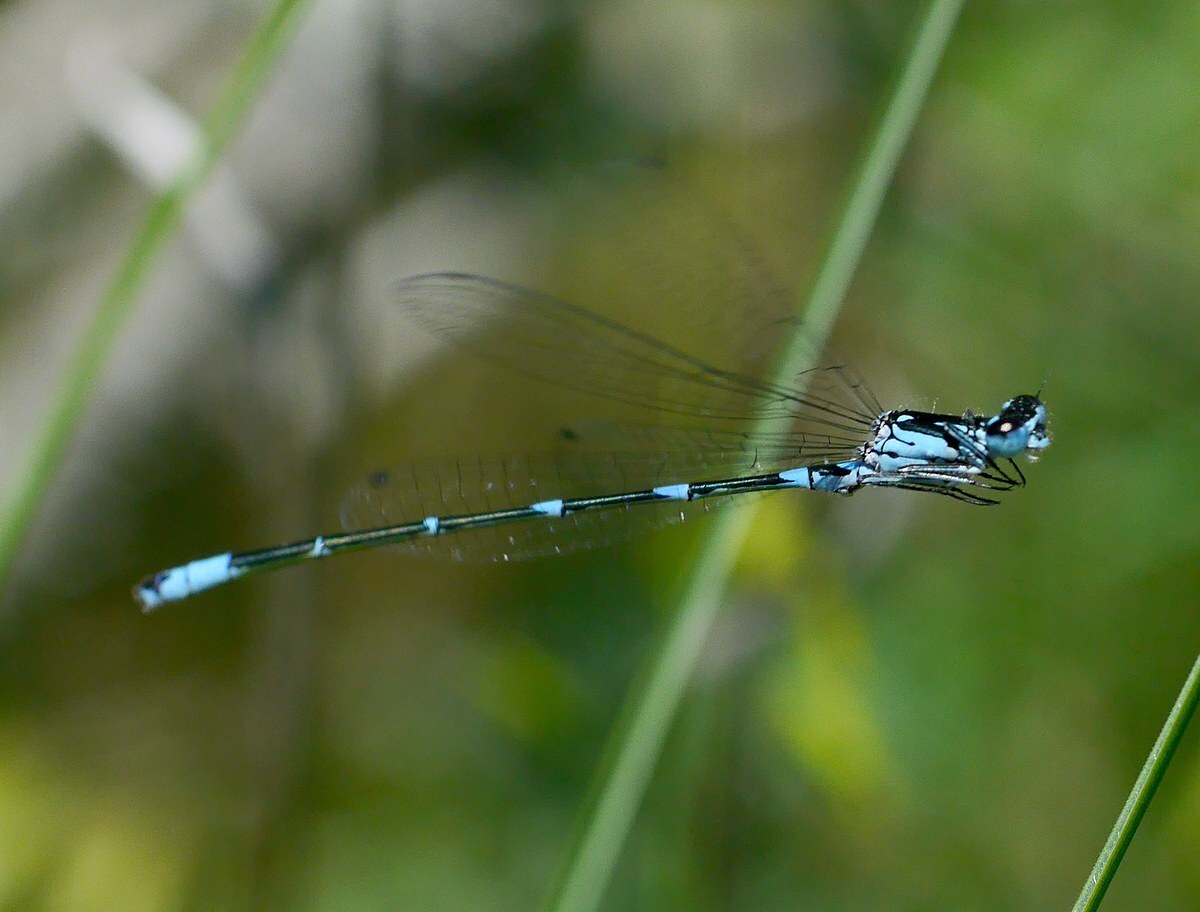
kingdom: Animalia
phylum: Arthropoda
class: Insecta
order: Odonata
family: Coenagrionidae
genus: Coenagrion
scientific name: Coenagrion pulchellum
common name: Variable bluet
